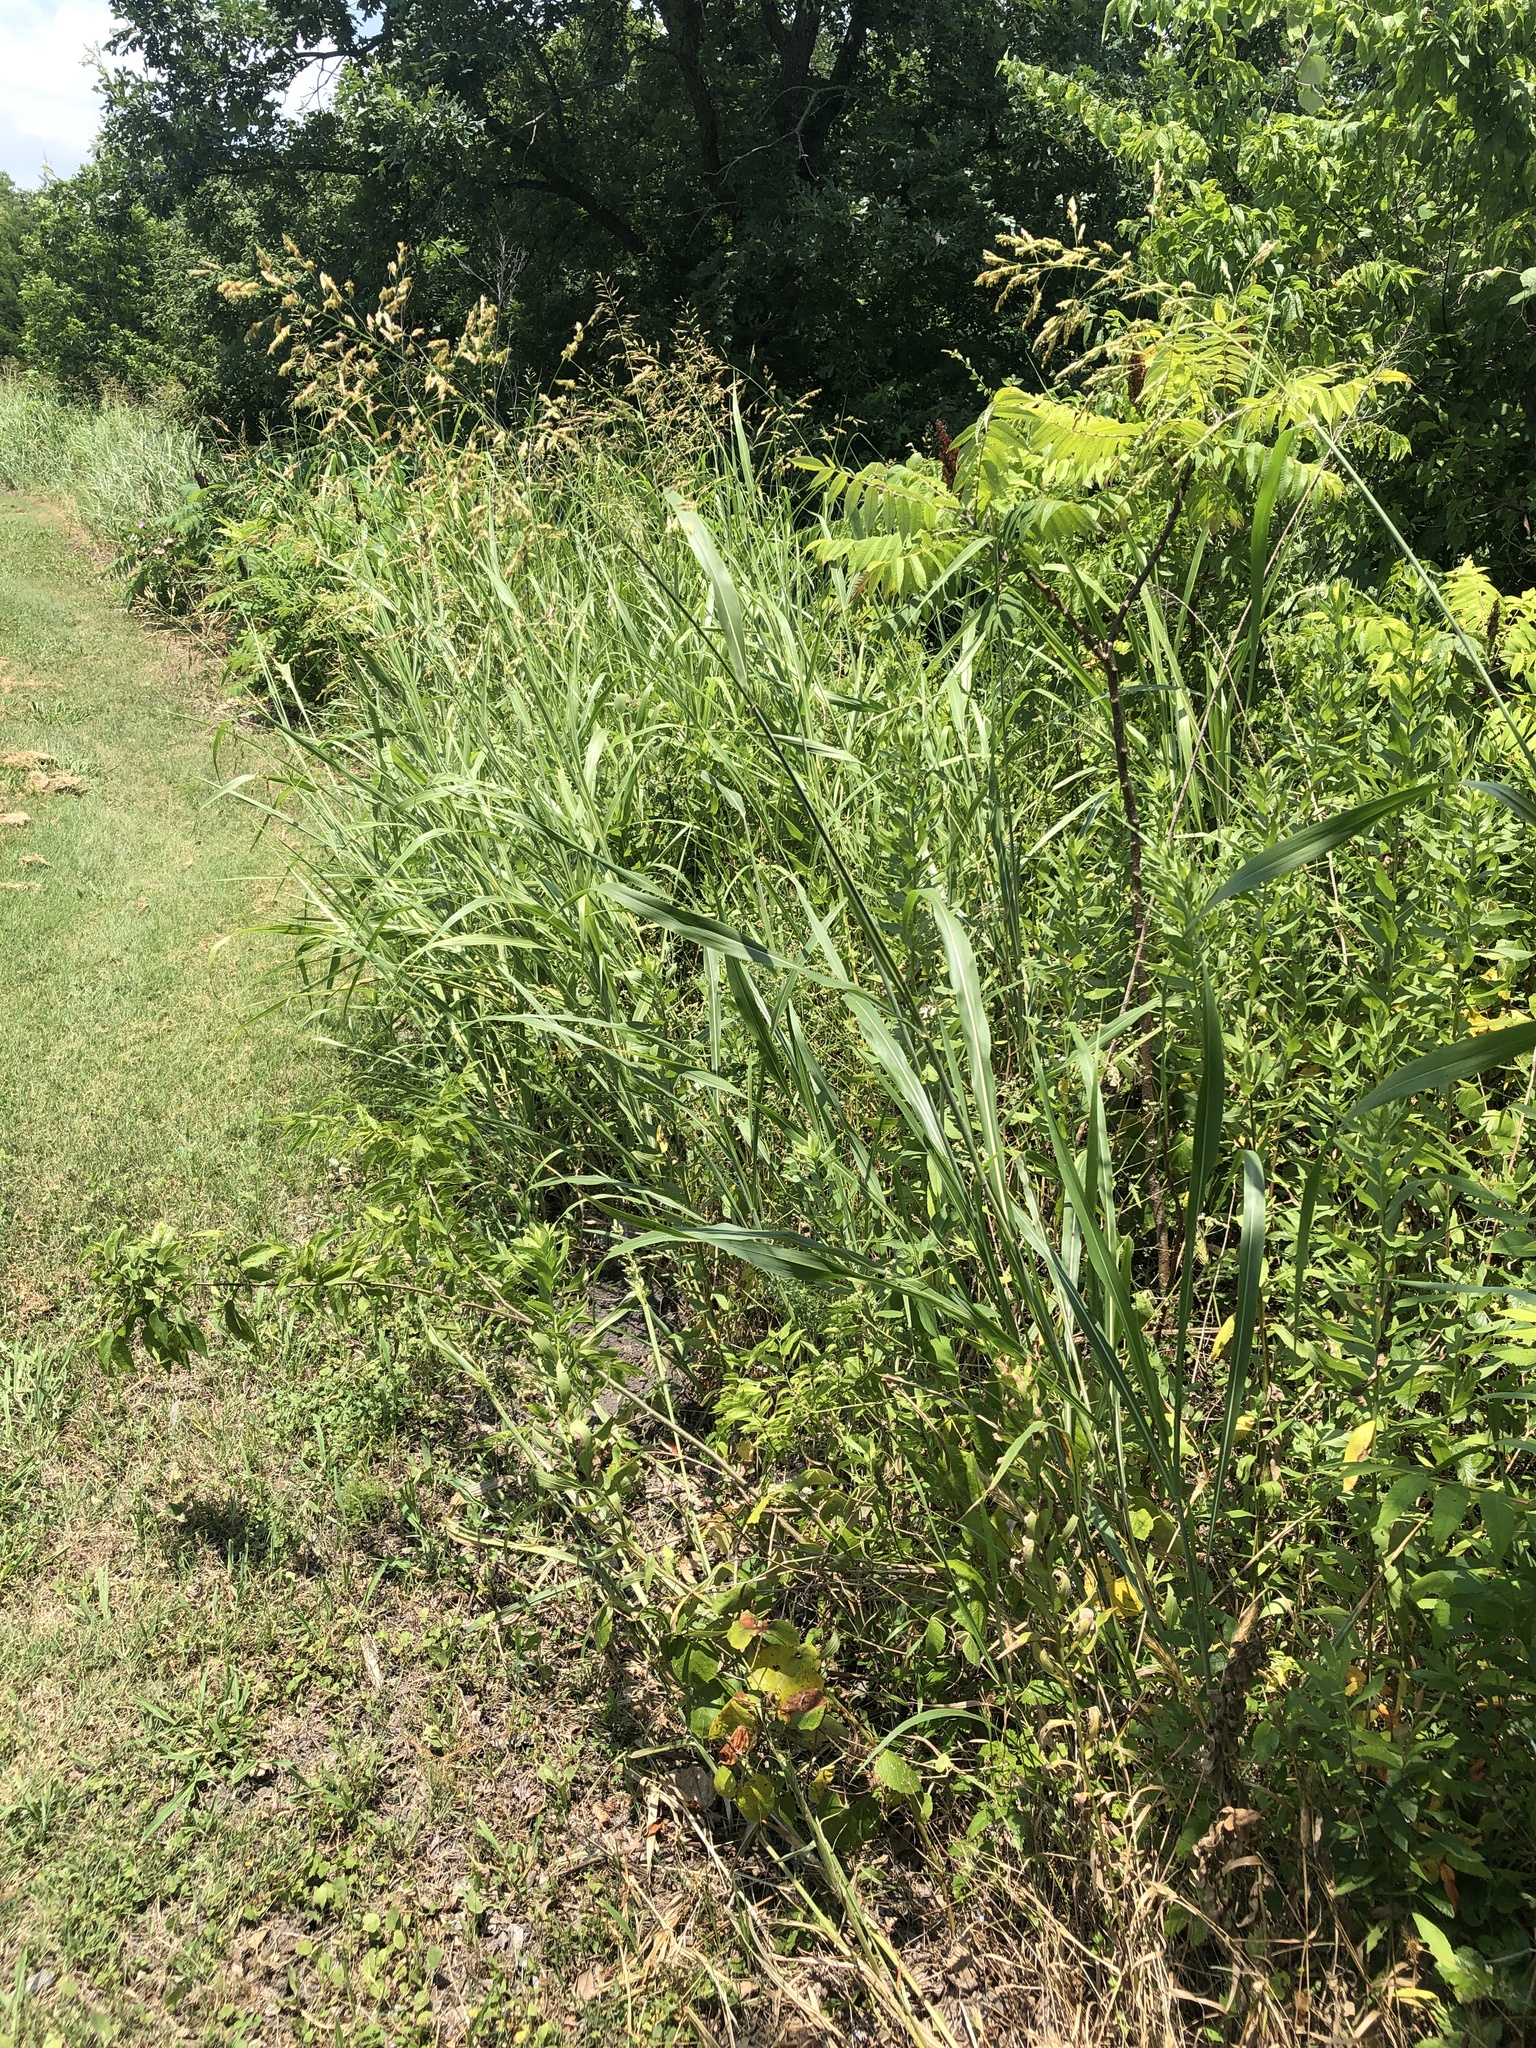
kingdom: Plantae
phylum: Tracheophyta
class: Liliopsida
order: Poales
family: Poaceae
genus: Sorghum
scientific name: Sorghum halepense
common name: Johnson-grass
